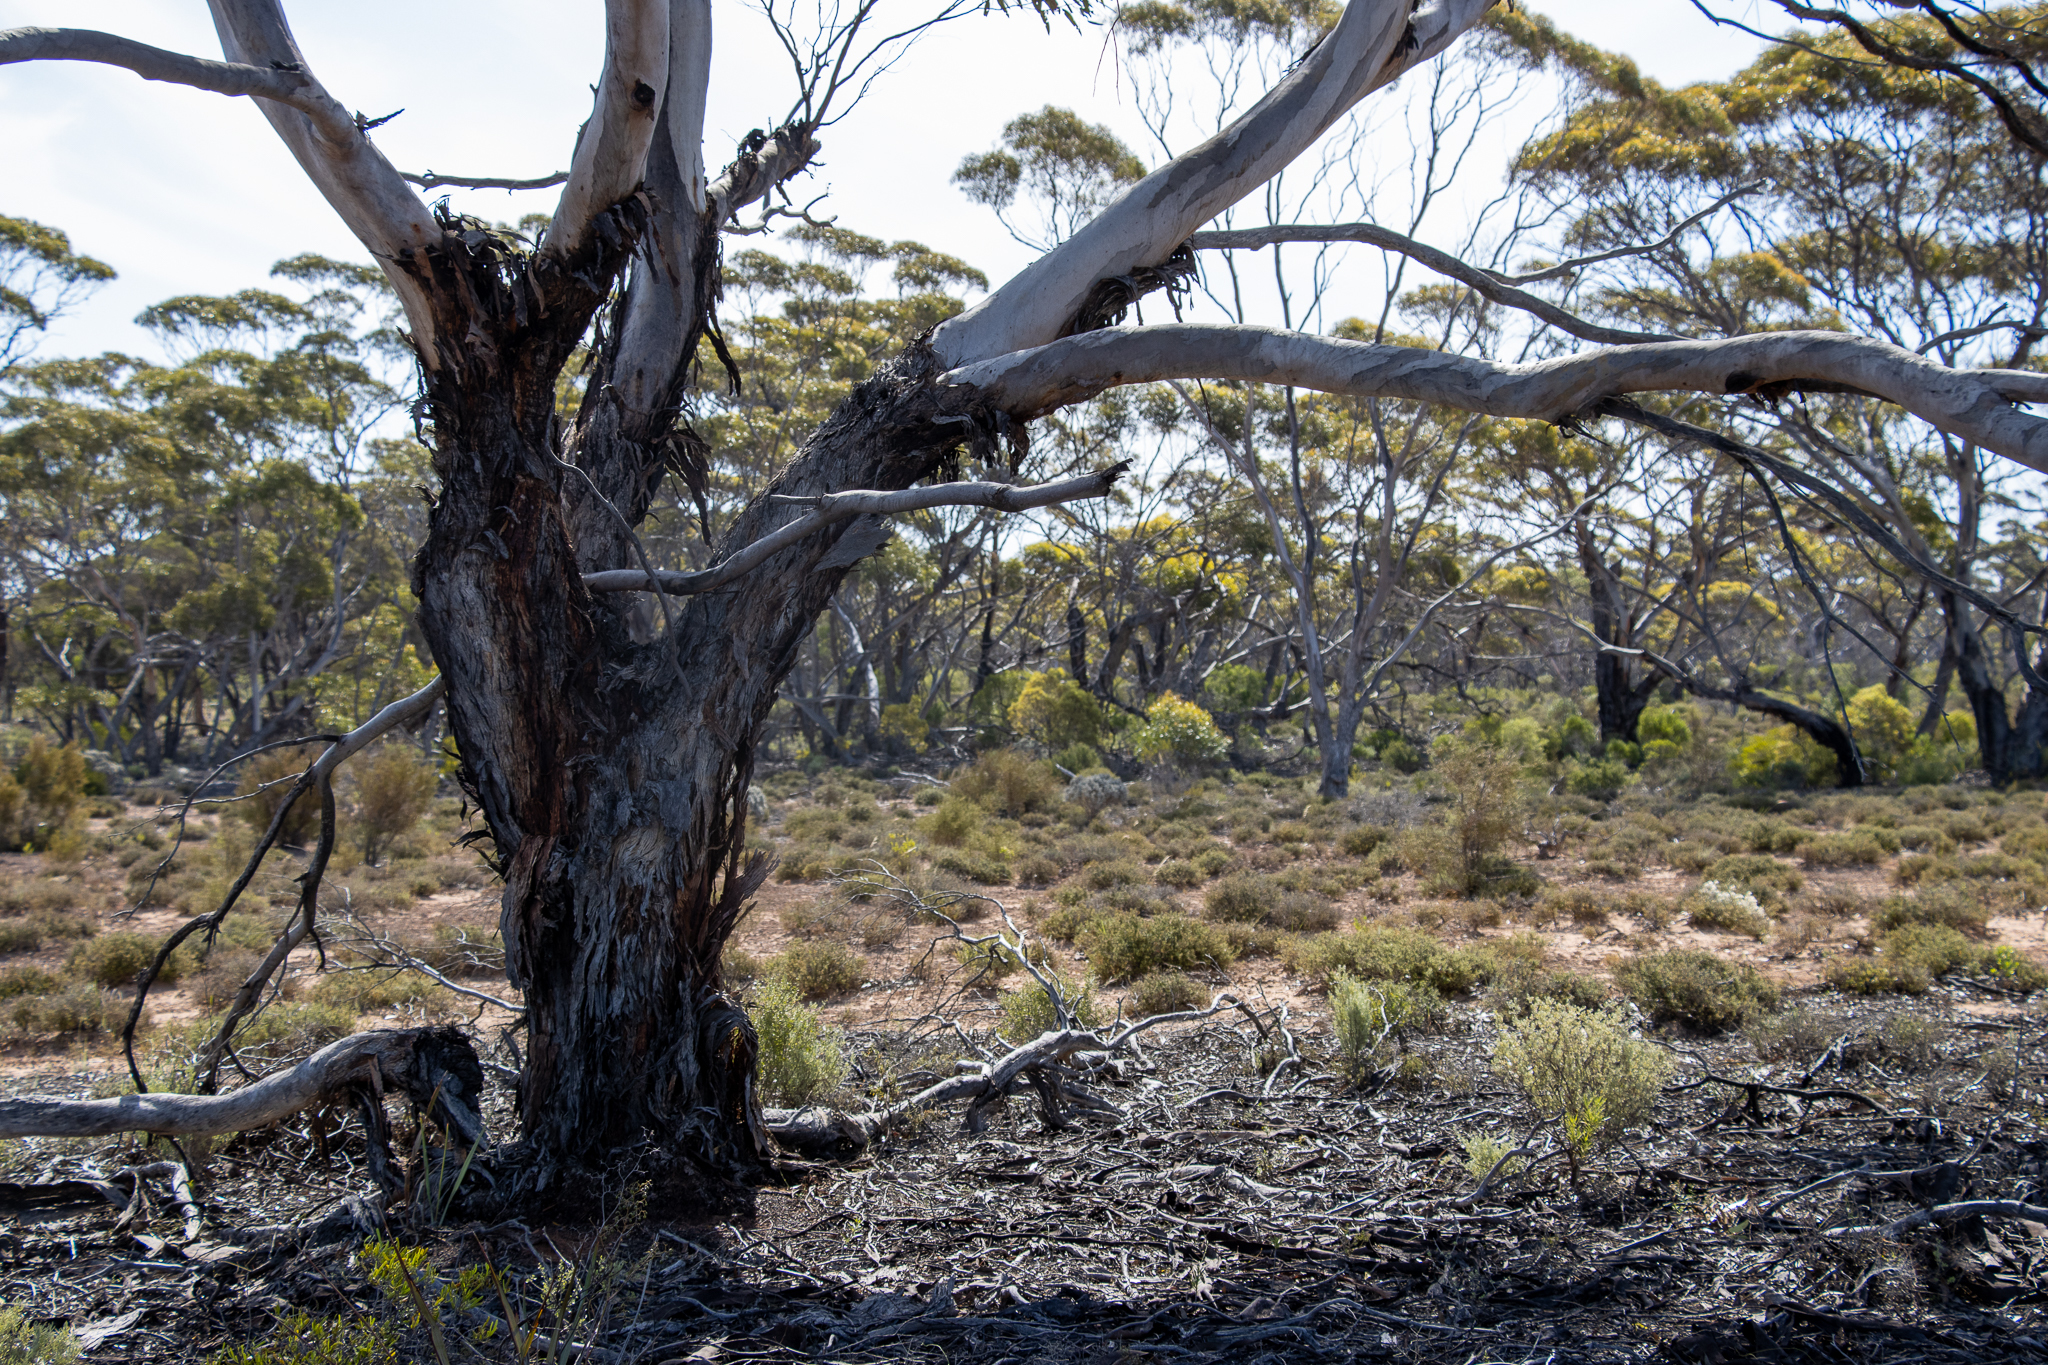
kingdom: Plantae
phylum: Tracheophyta
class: Magnoliopsida
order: Myrtales
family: Myrtaceae
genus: Eucalyptus
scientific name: Eucalyptus brachycalyx
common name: Chindoo mallee
